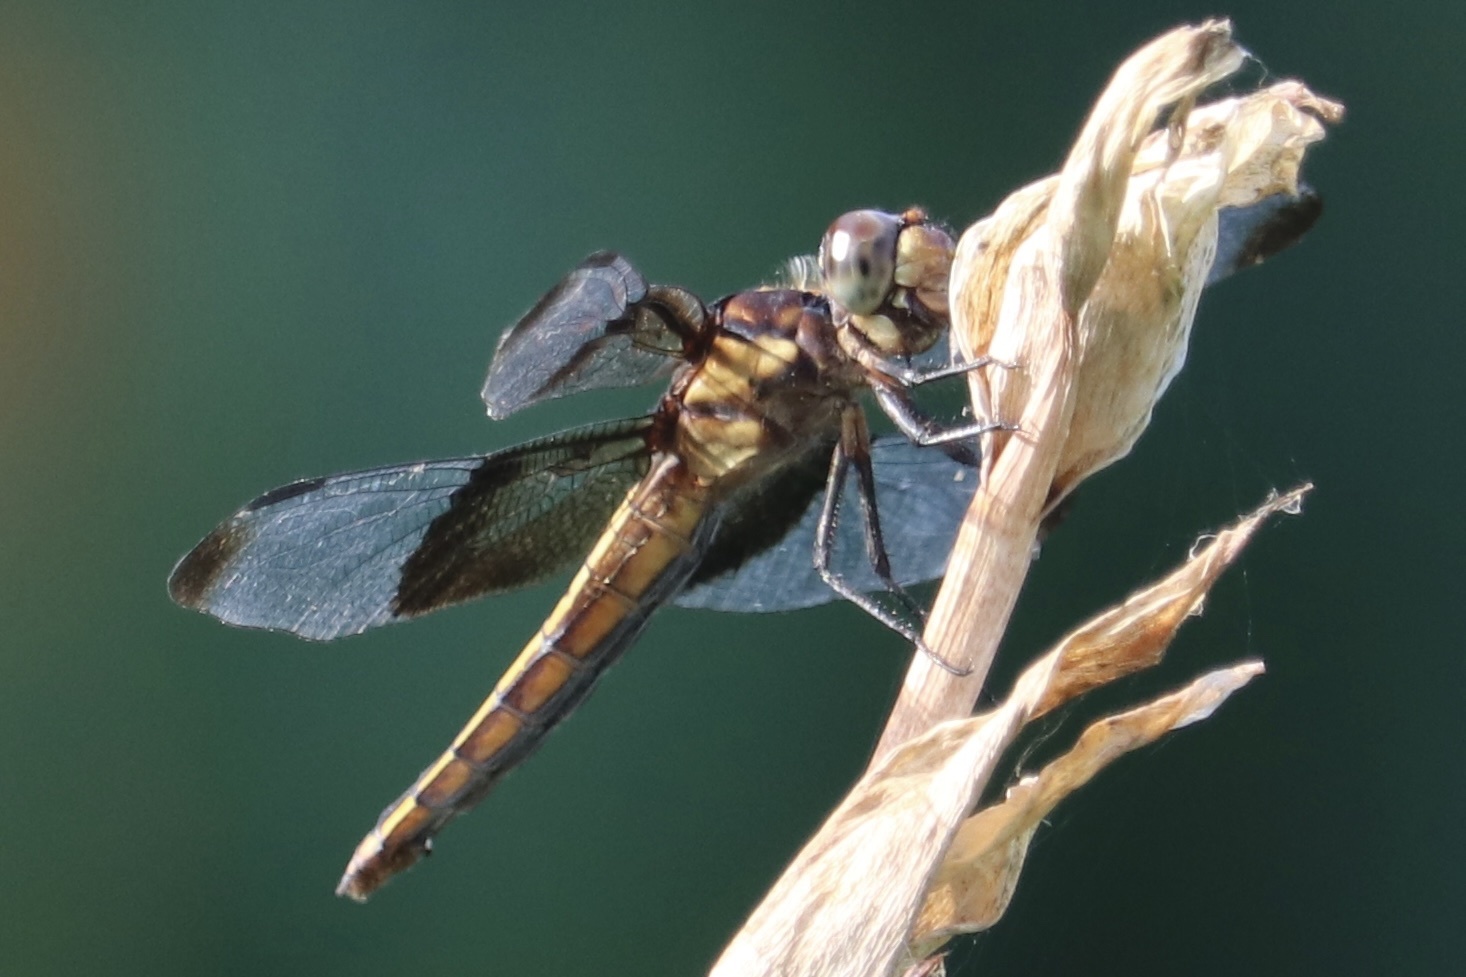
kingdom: Animalia
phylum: Arthropoda
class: Insecta
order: Odonata
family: Libellulidae
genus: Libellula
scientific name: Libellula luctuosa
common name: Widow skimmer
